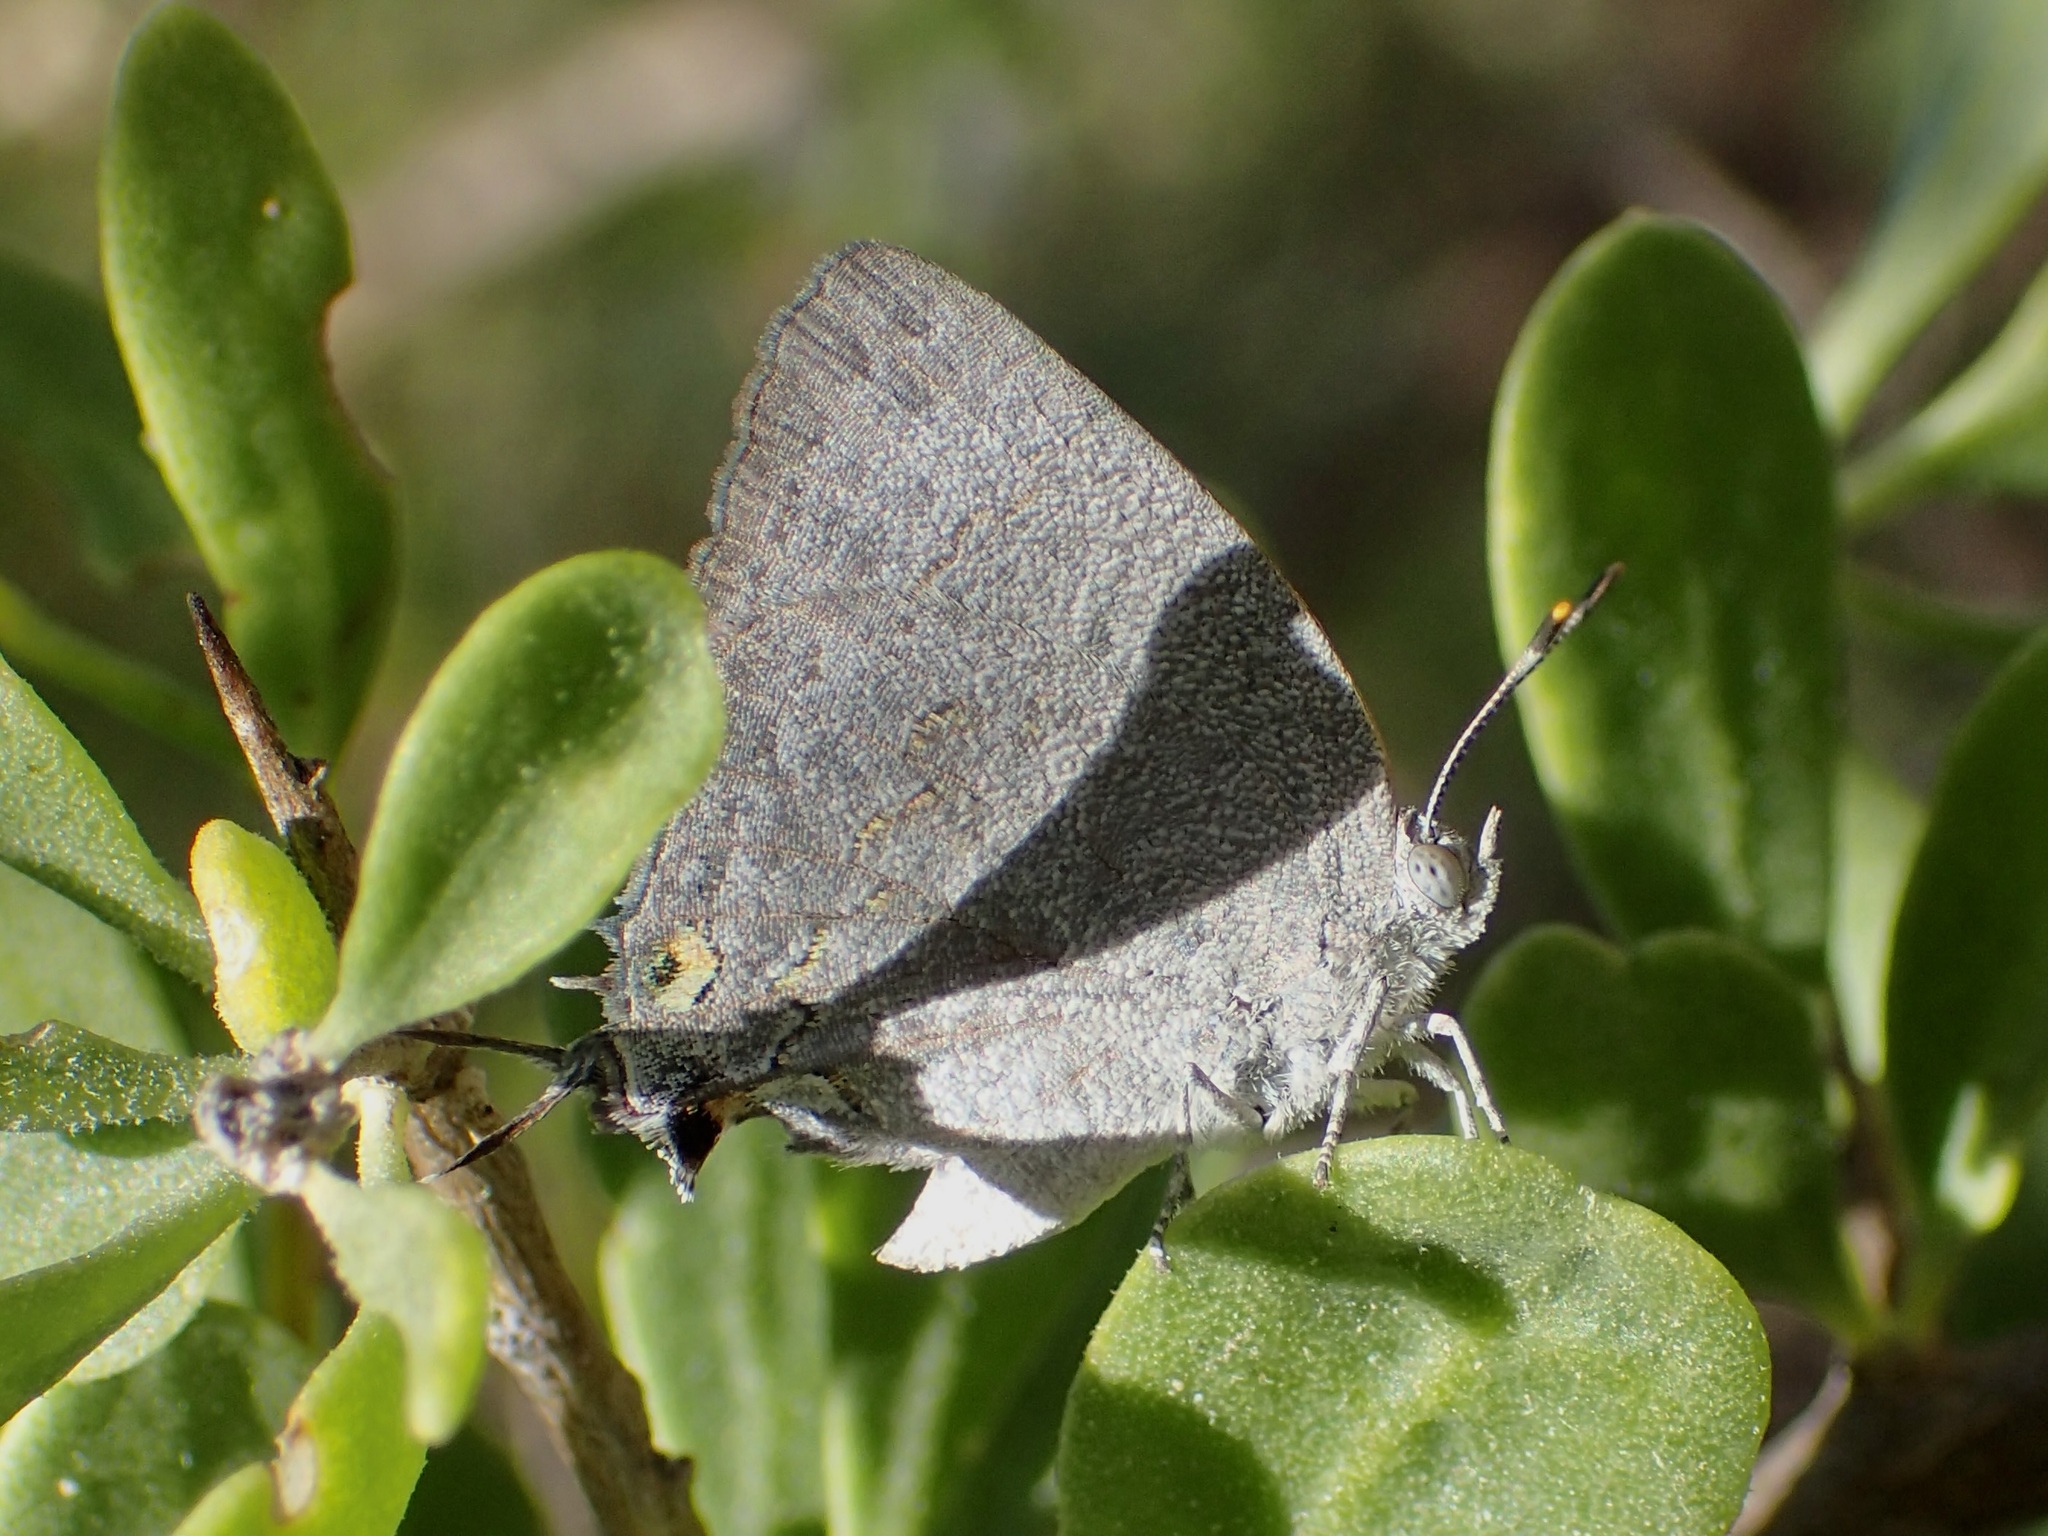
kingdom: Animalia
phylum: Arthropoda
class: Insecta
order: Lepidoptera
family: Lycaenidae
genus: Hypostrymon
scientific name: Hypostrymon critola
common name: Sonoran hairstreak
